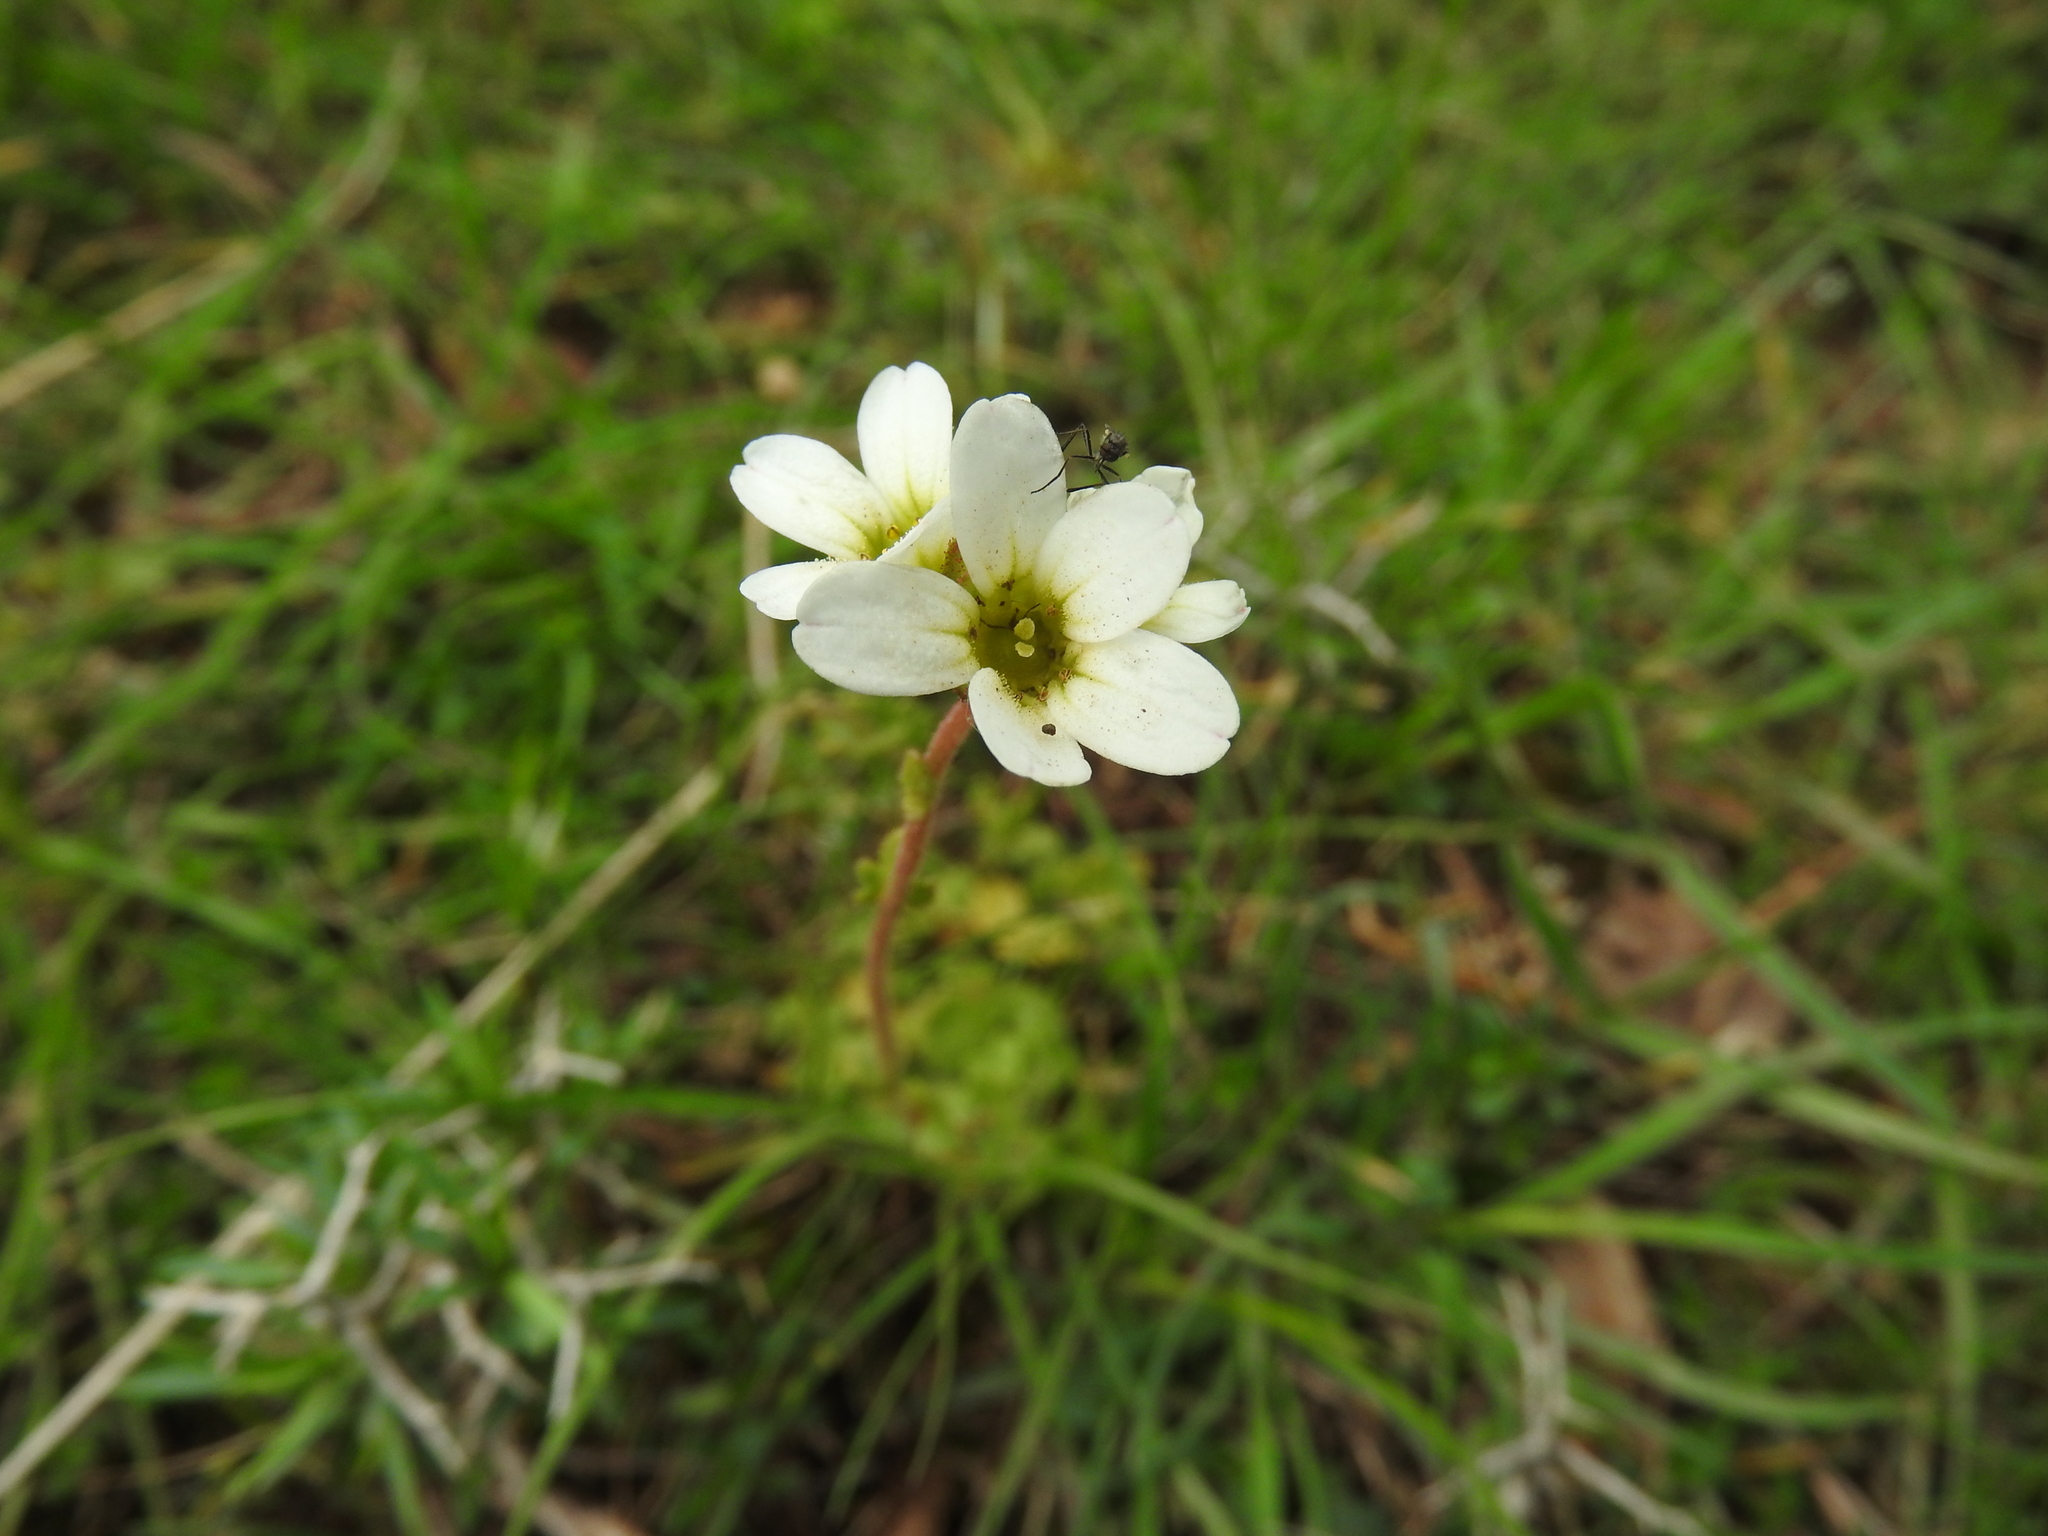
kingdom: Plantae
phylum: Tracheophyta
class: Magnoliopsida
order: Saxifragales
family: Saxifragaceae
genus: Saxifraga
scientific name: Saxifraga carpetana
